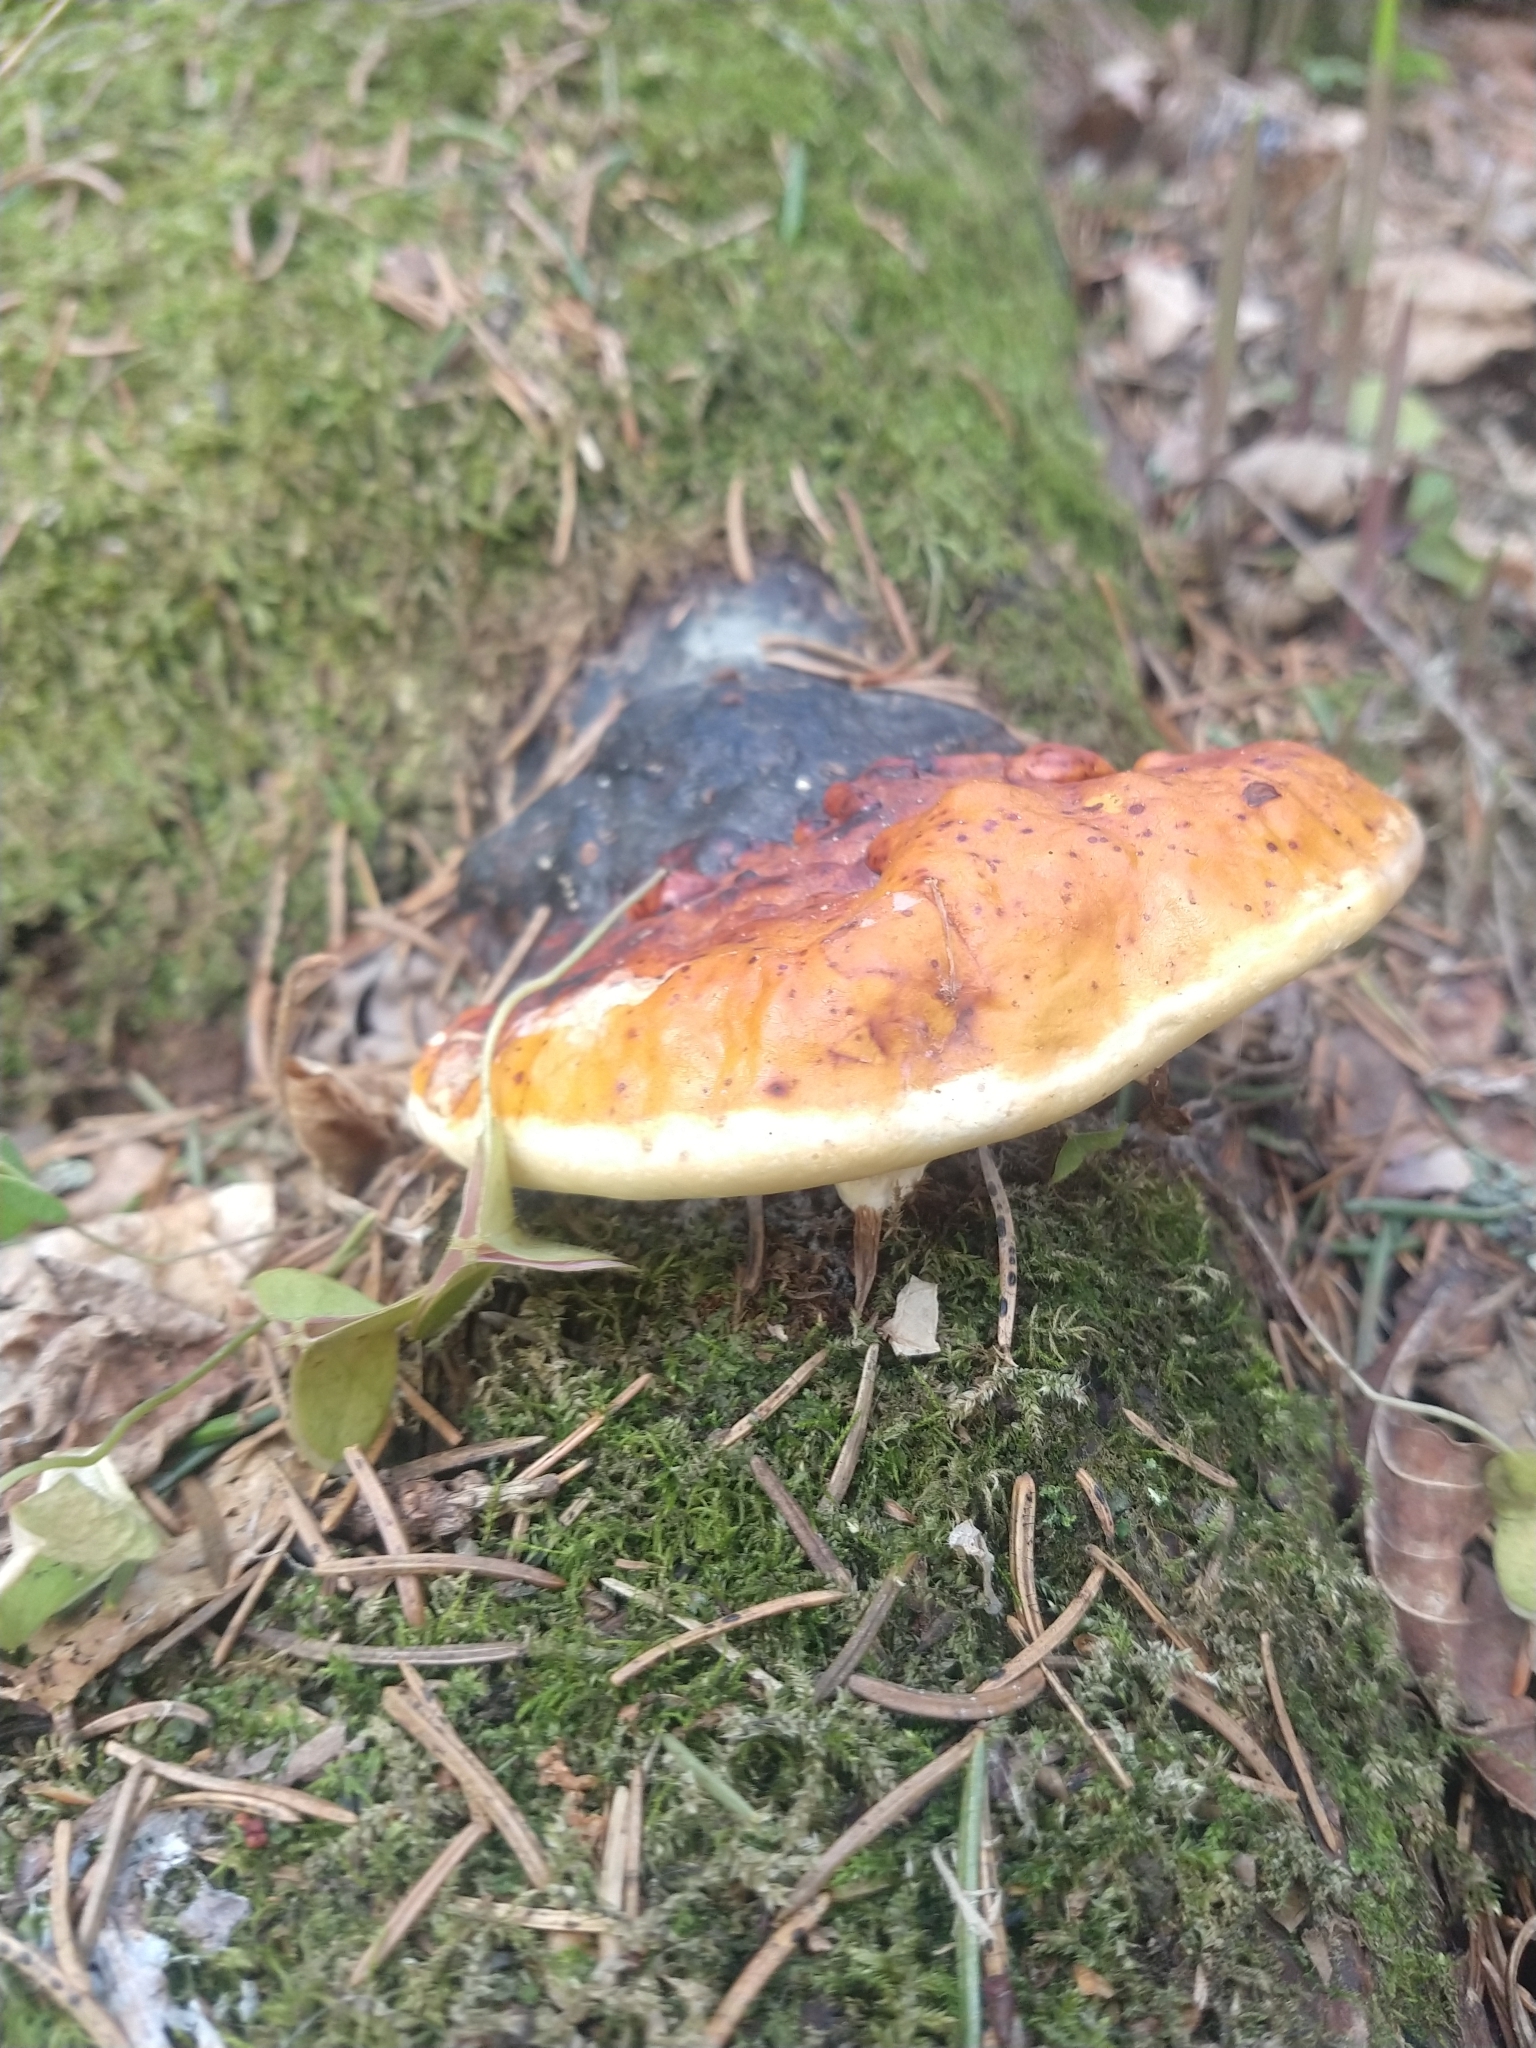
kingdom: Fungi
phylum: Basidiomycota
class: Agaricomycetes
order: Polyporales
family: Fomitopsidaceae
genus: Fomitopsis
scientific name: Fomitopsis pinicola
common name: Red-belted bracket
